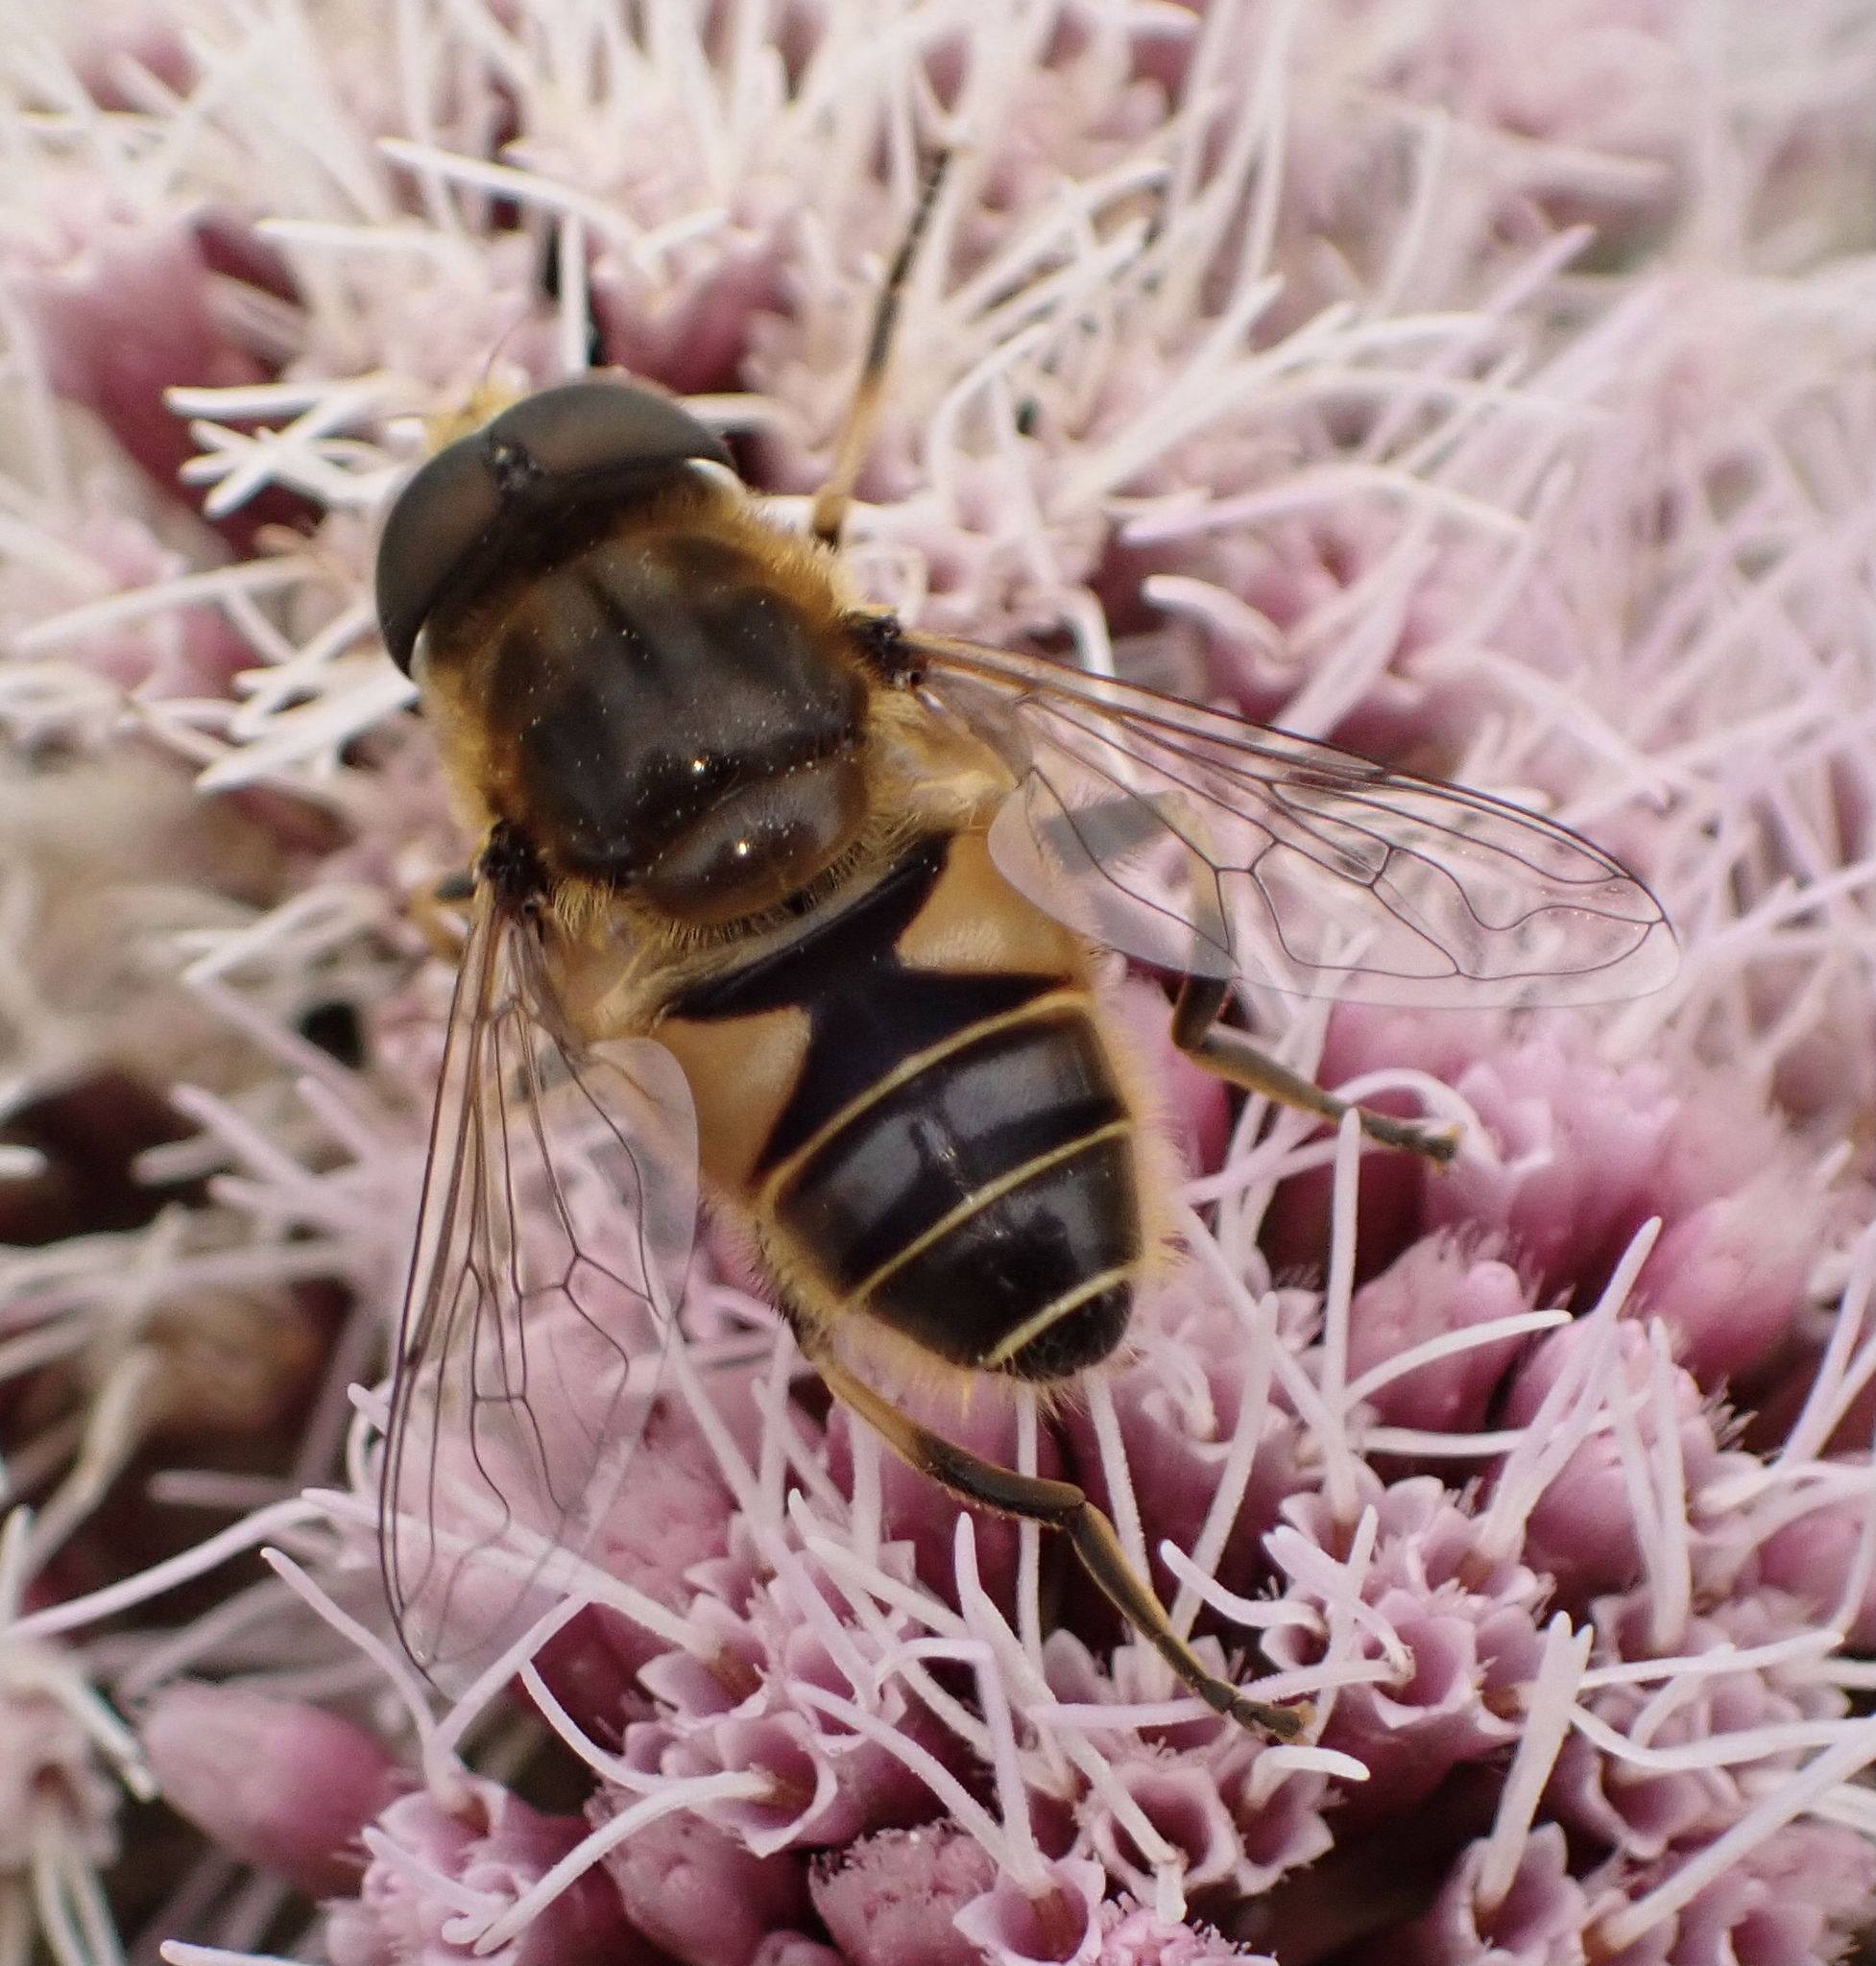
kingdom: Animalia
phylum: Arthropoda
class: Insecta
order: Diptera
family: Syrphidae
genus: Eristalis
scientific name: Eristalis nemorum
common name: Orange-spined drone fly
